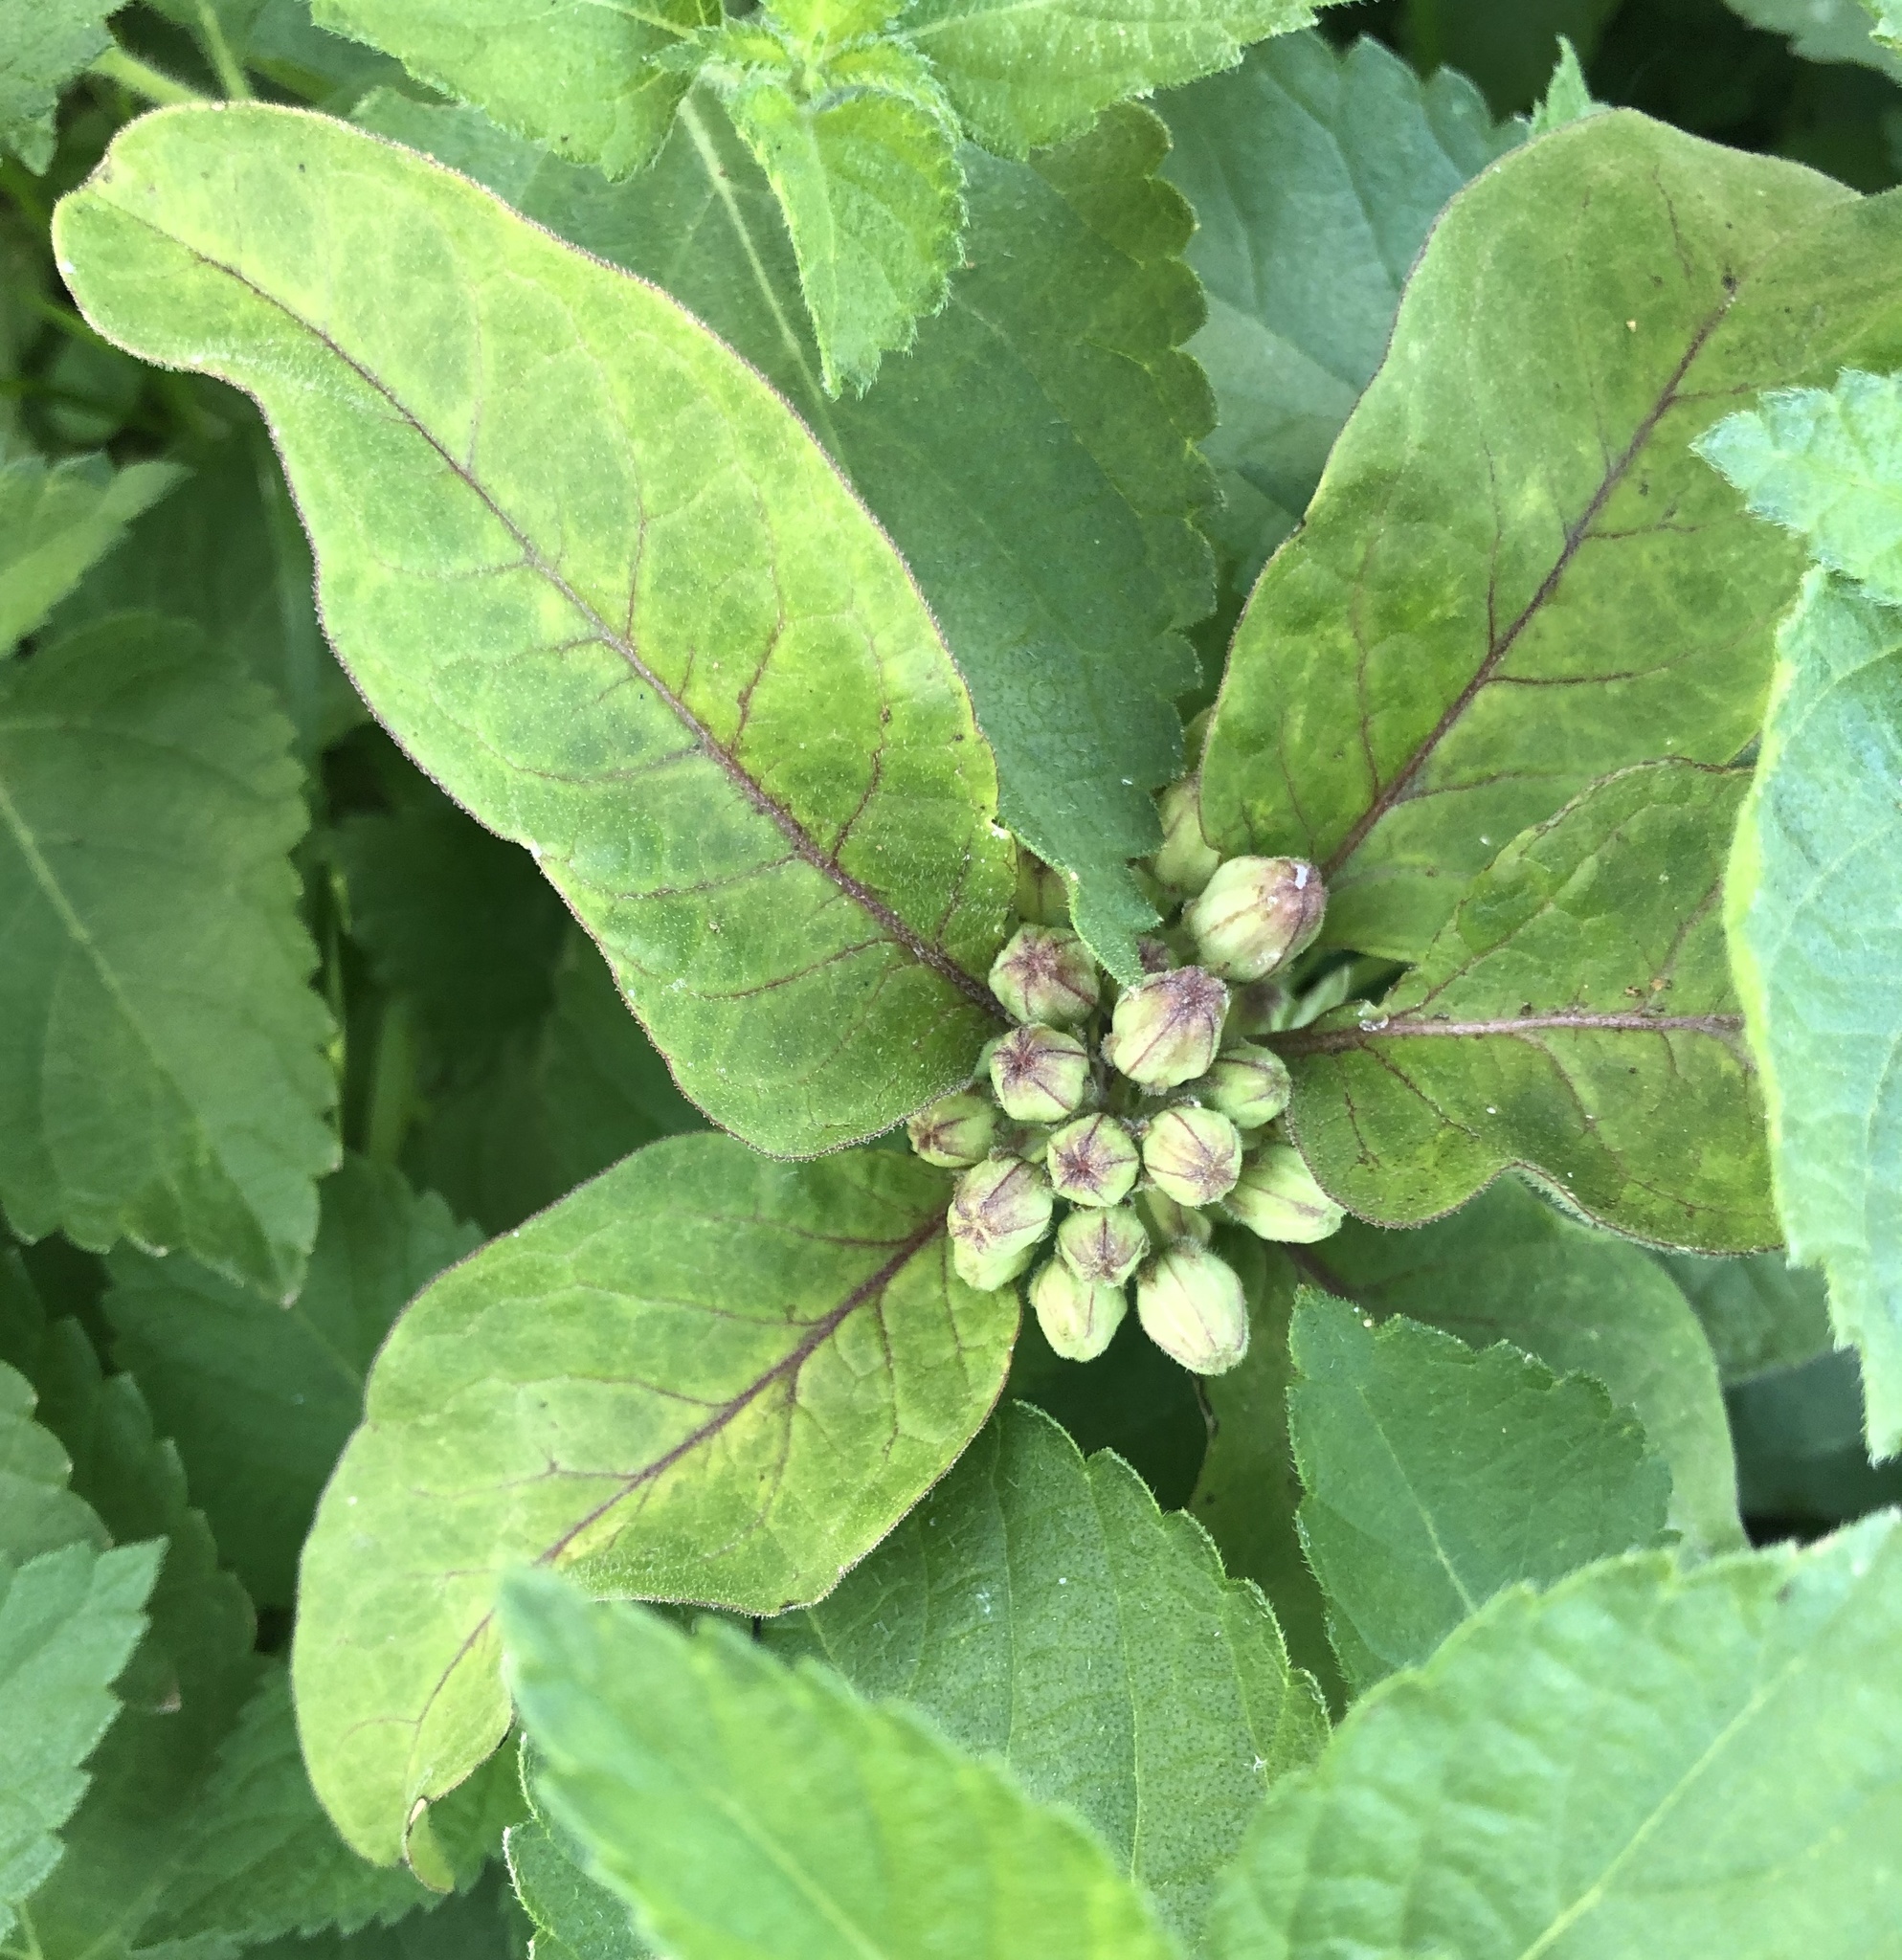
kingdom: Plantae
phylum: Tracheophyta
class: Magnoliopsida
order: Gentianales
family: Apocynaceae
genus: Asclepias
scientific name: Asclepias oenotheroides
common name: Zizotes milkweed
